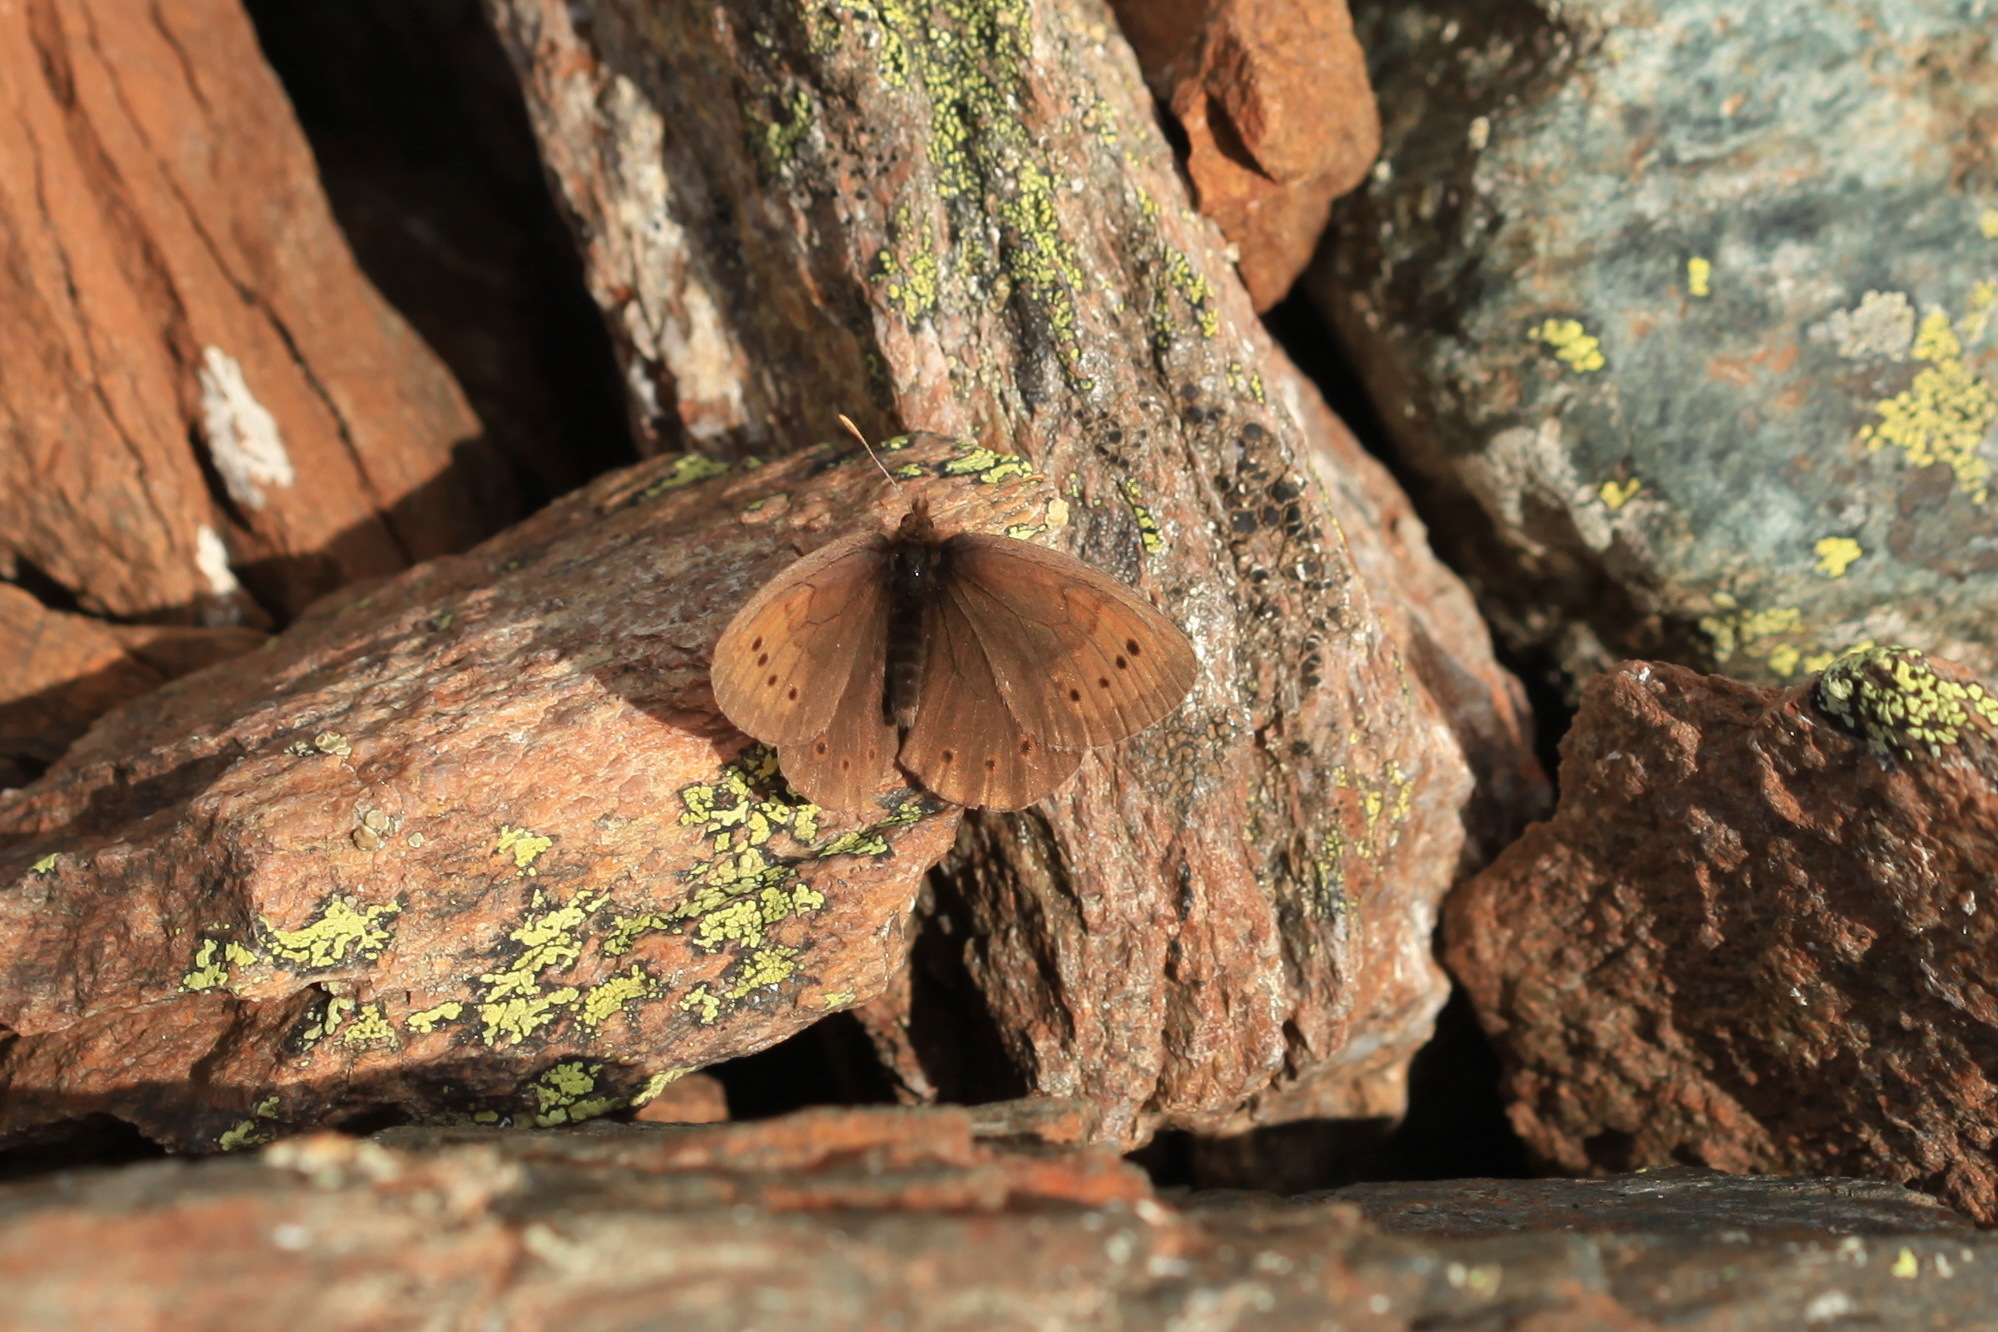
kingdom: Animalia
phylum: Arthropoda
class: Insecta
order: Lepidoptera
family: Nymphalidae
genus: Erebia
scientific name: Erebia pandrose
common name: Dewy ringlet
